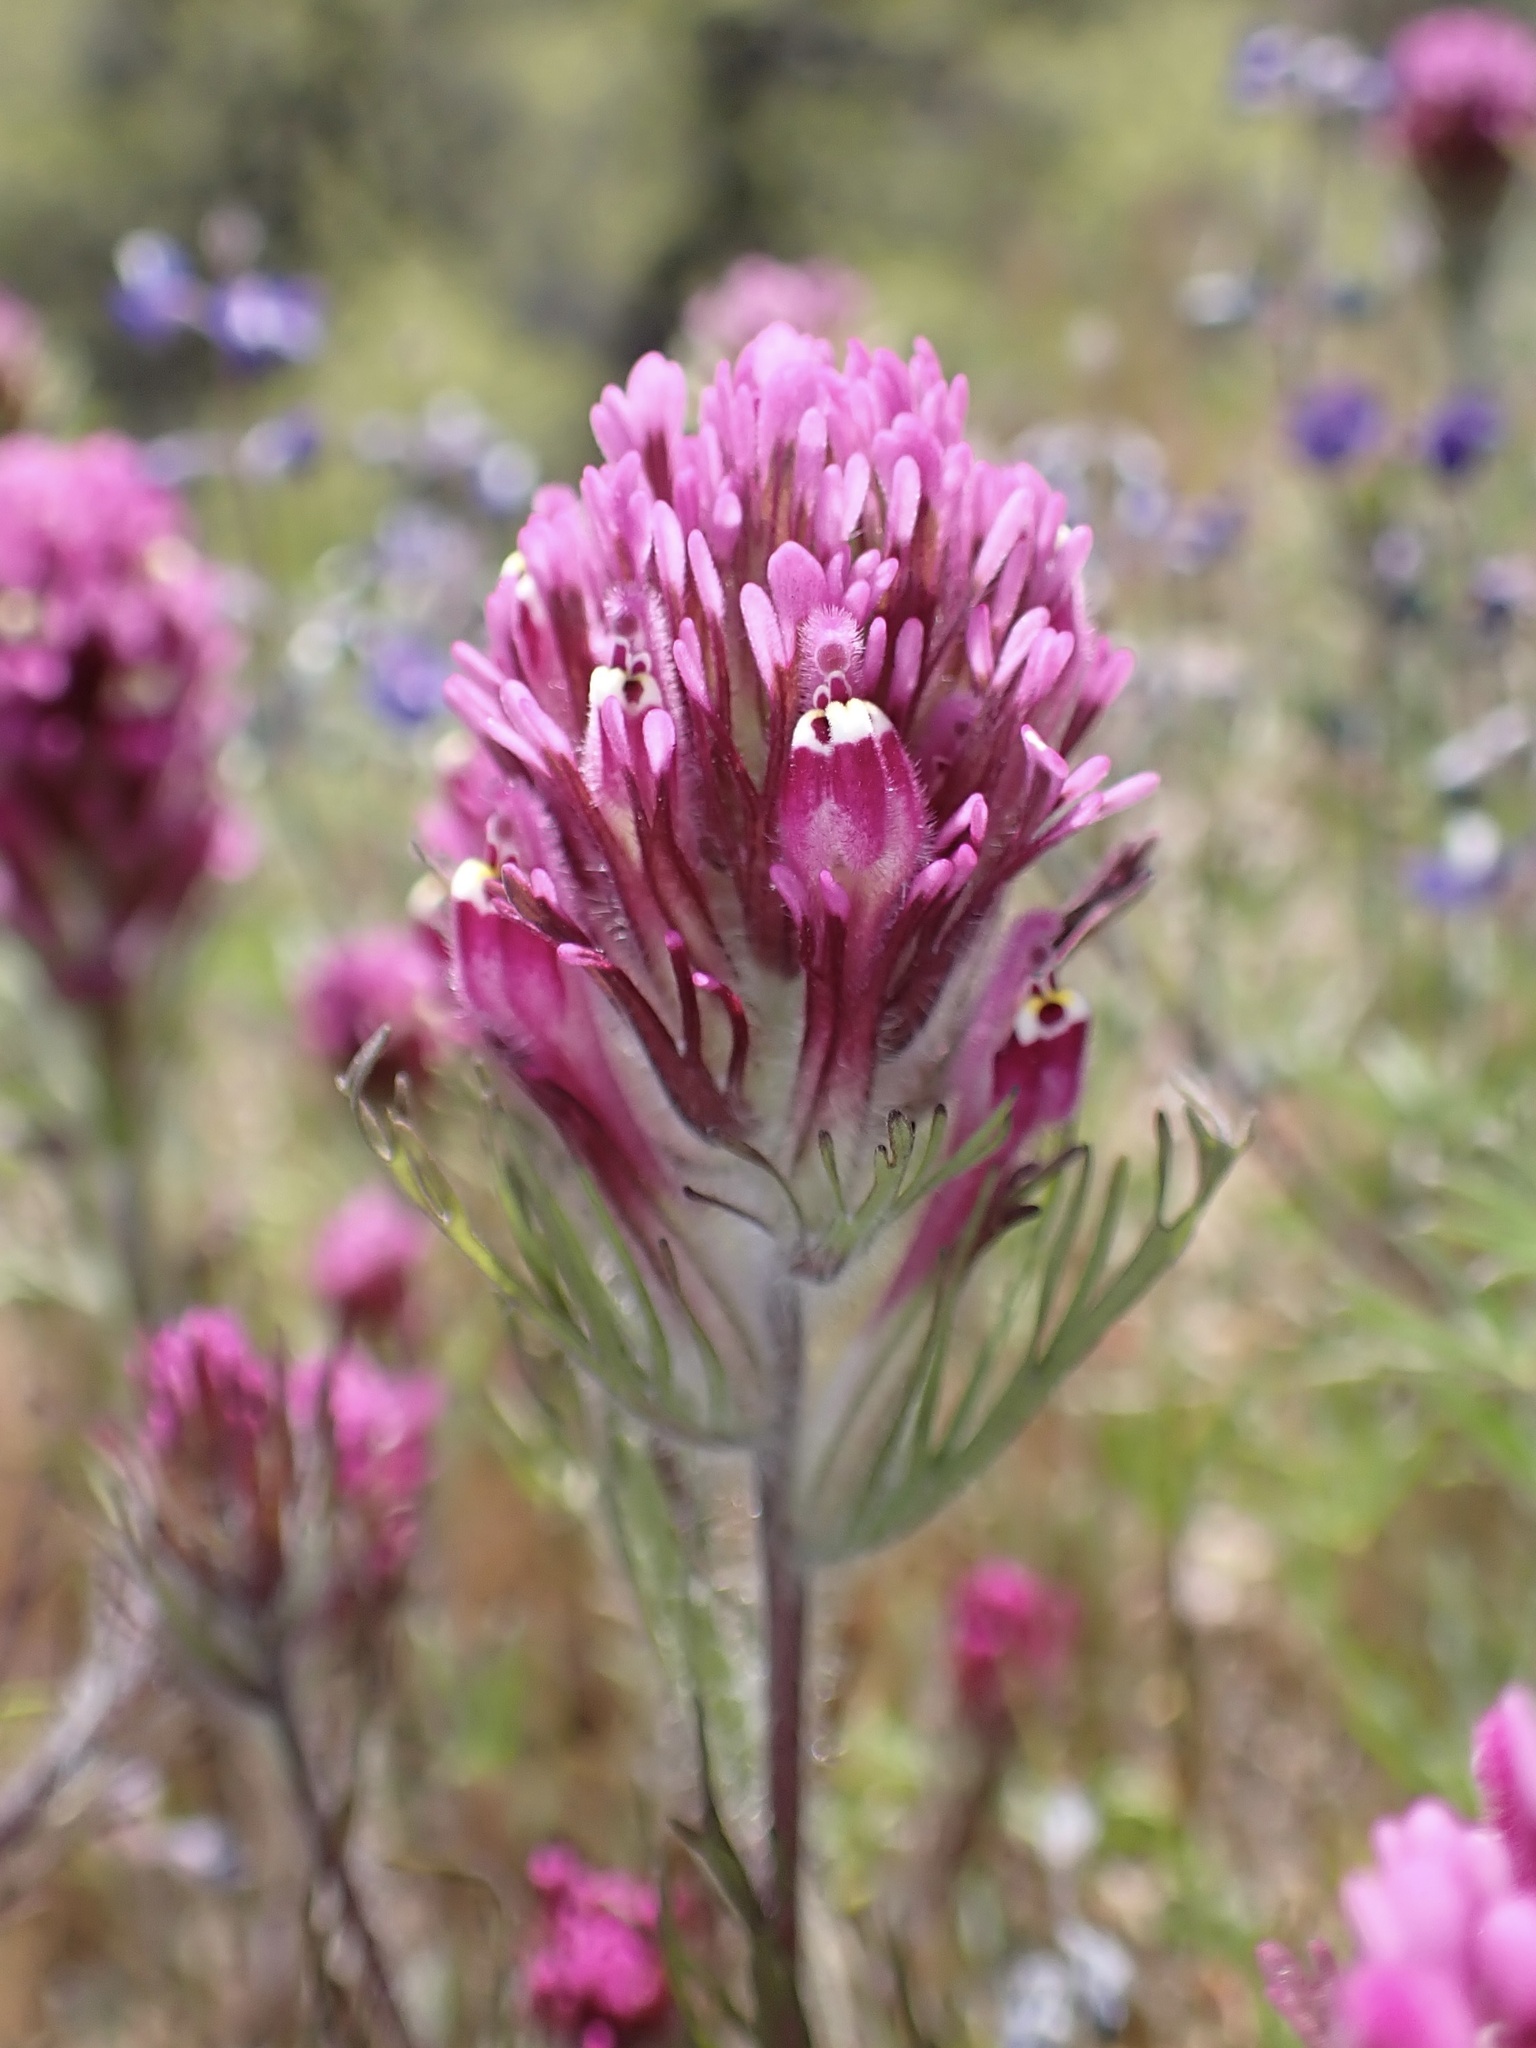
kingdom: Plantae
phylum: Tracheophyta
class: Magnoliopsida
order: Lamiales
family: Orobanchaceae
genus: Castilleja
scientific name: Castilleja exserta
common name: Purple owl-clover
